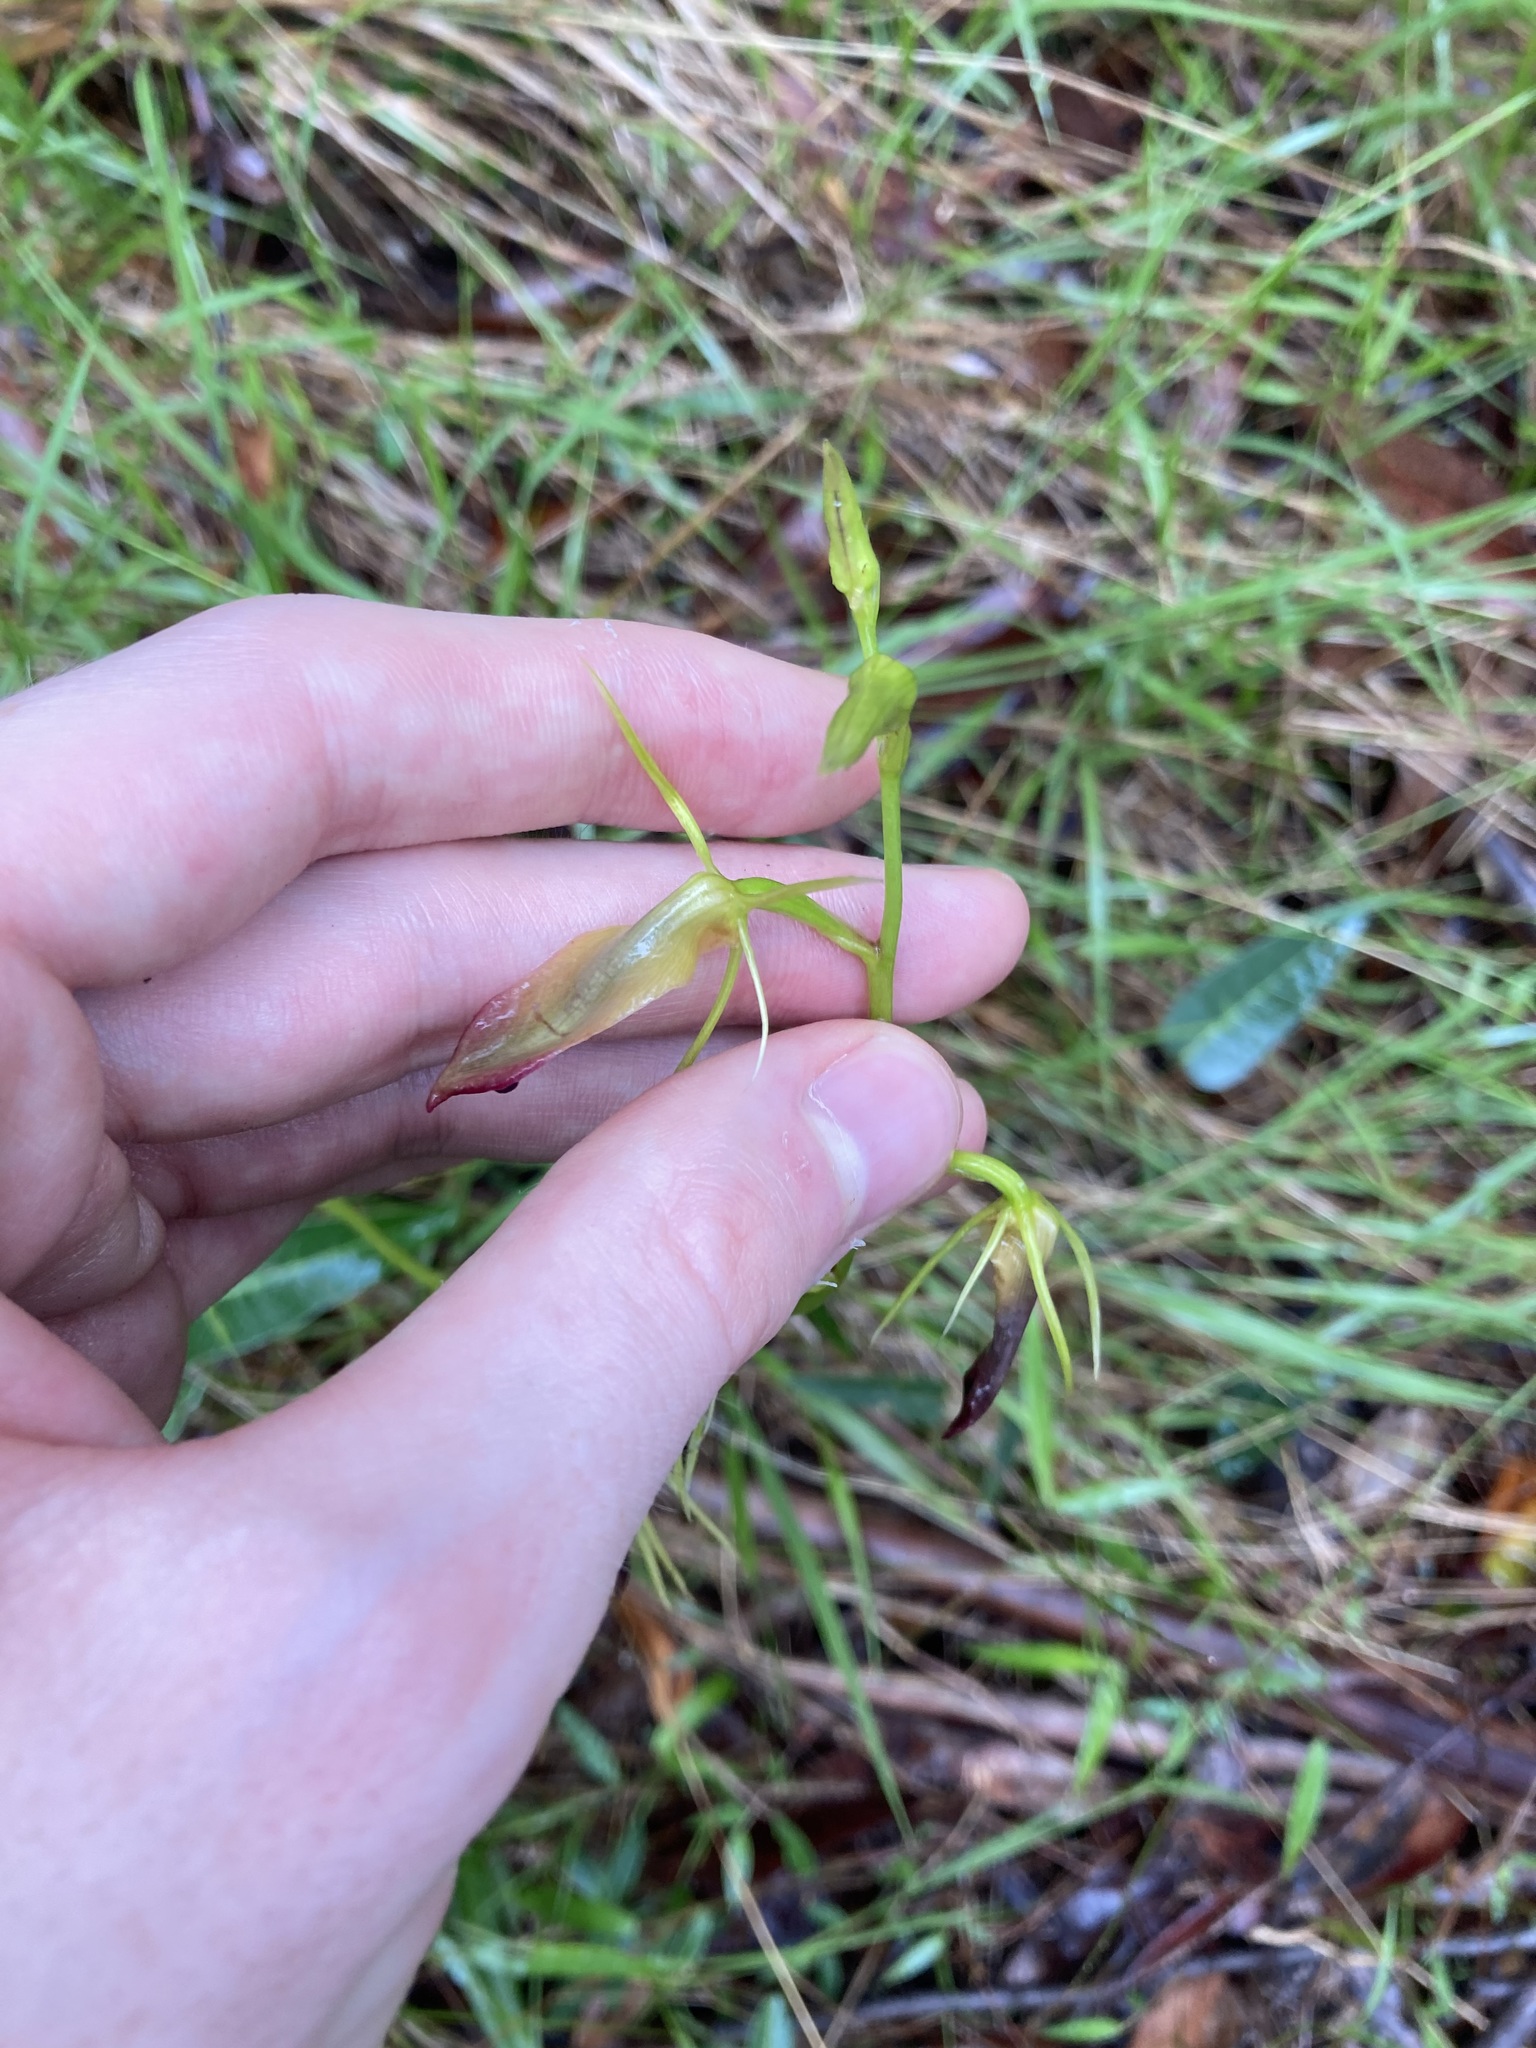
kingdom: Plantae
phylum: Tracheophyta
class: Liliopsida
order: Asparagales
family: Orchidaceae
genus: Cryptostylis
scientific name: Cryptostylis subulata
